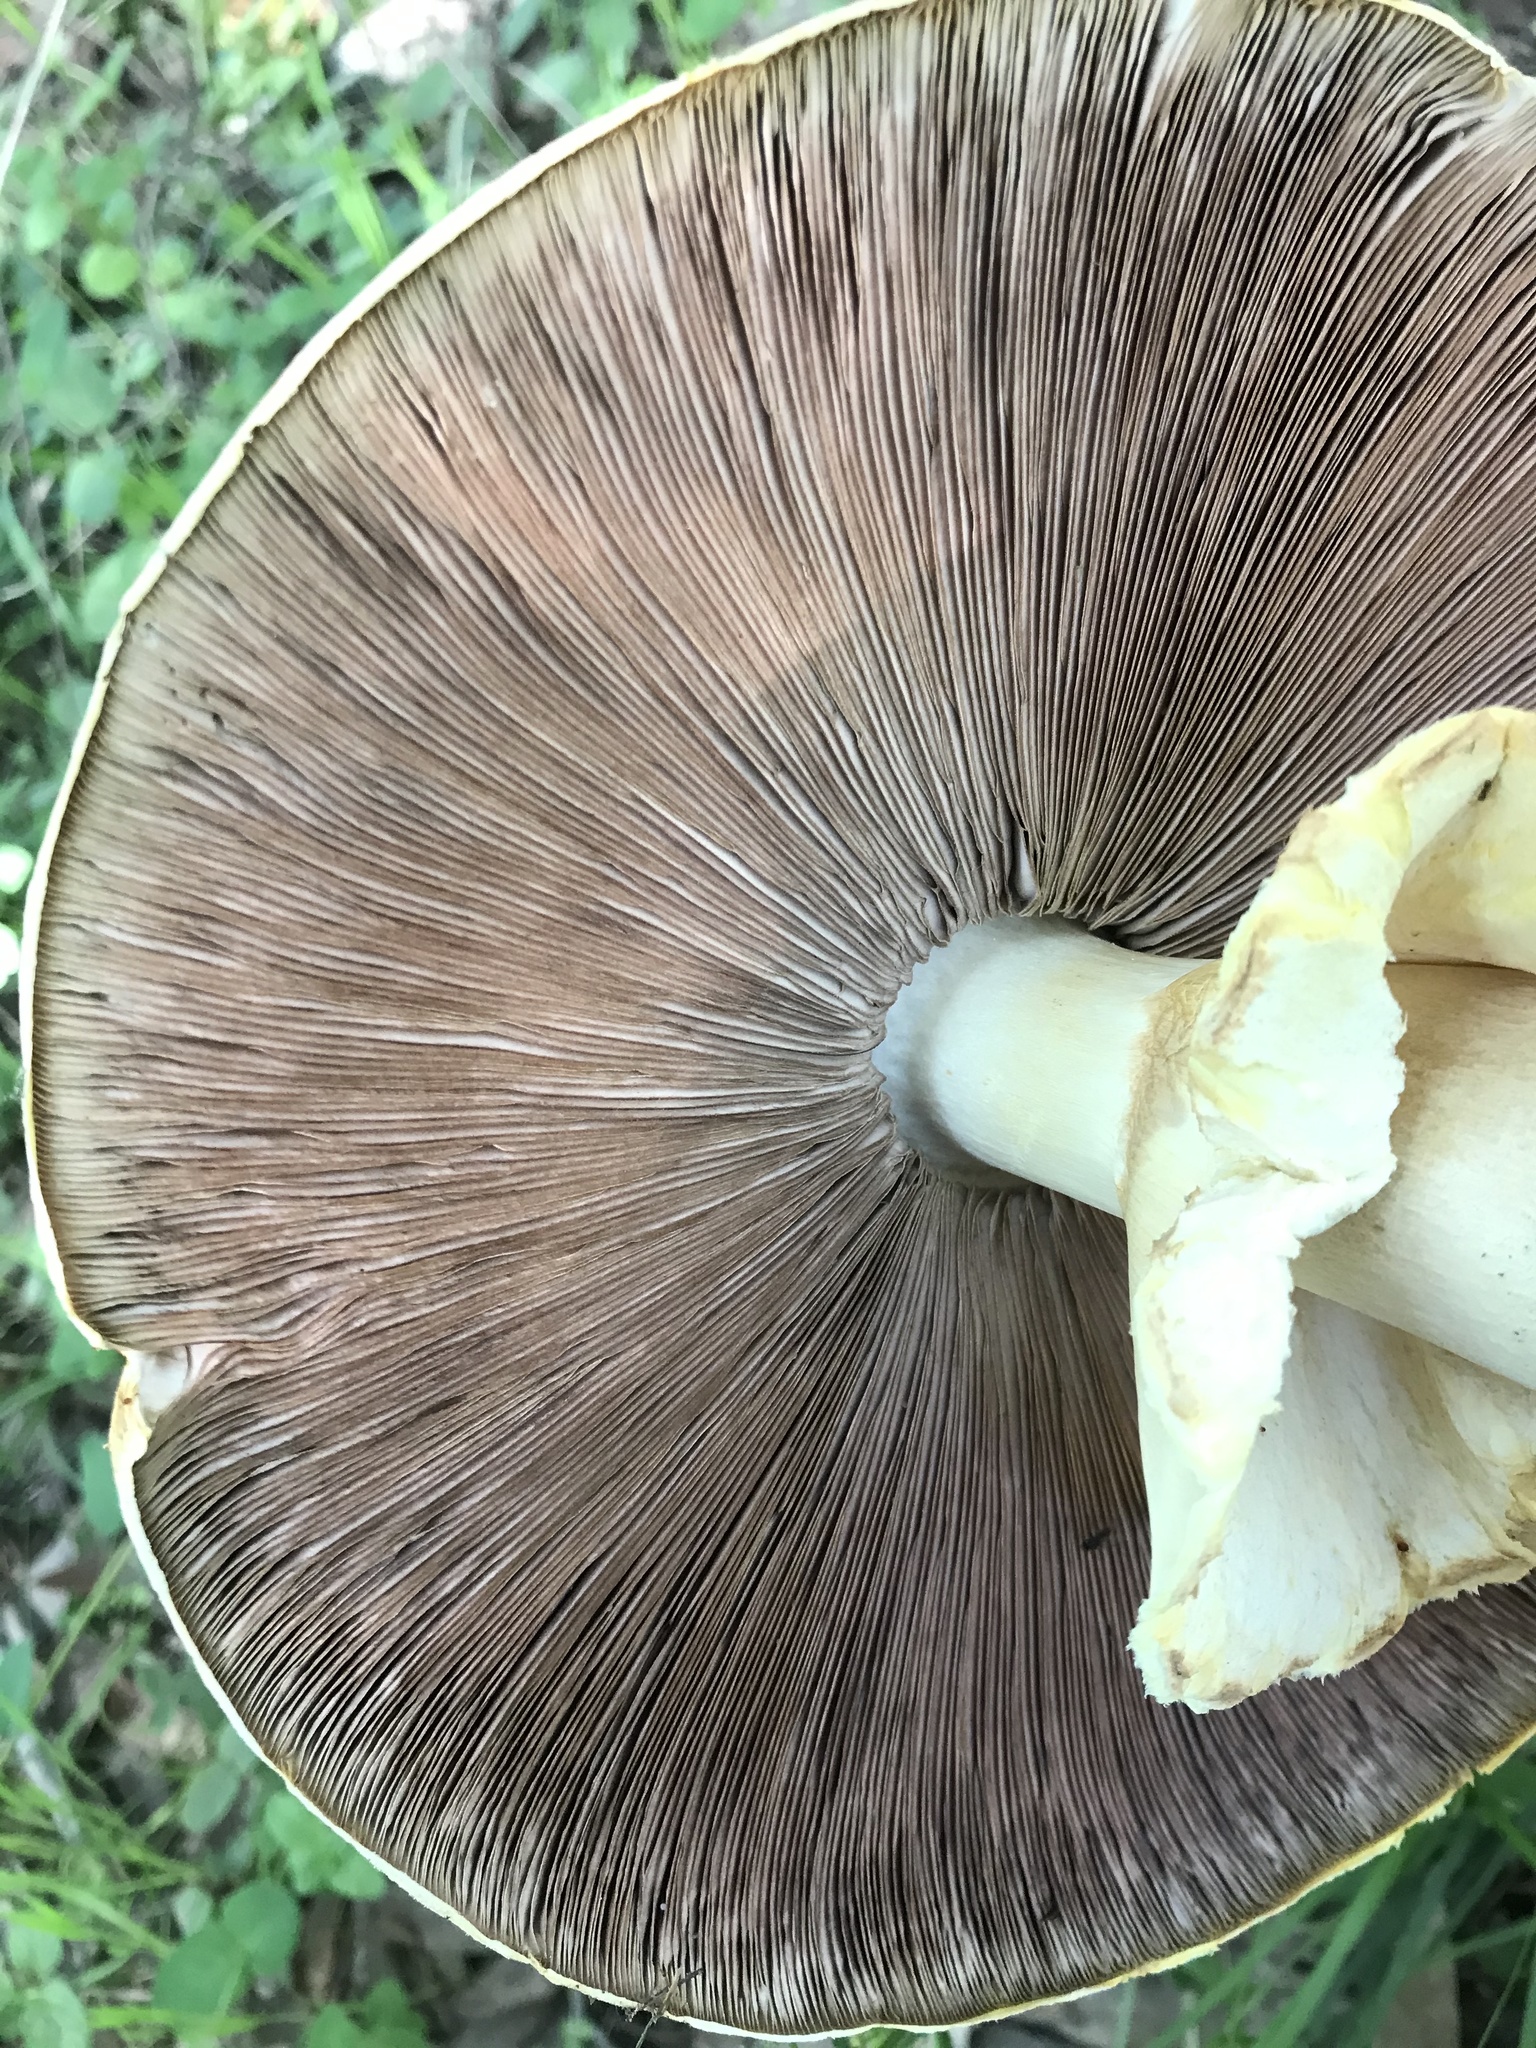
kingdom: Fungi
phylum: Basidiomycota
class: Agaricomycetes
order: Agaricales
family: Agaricaceae
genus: Agaricus
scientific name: Agaricus augustus
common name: Prince
